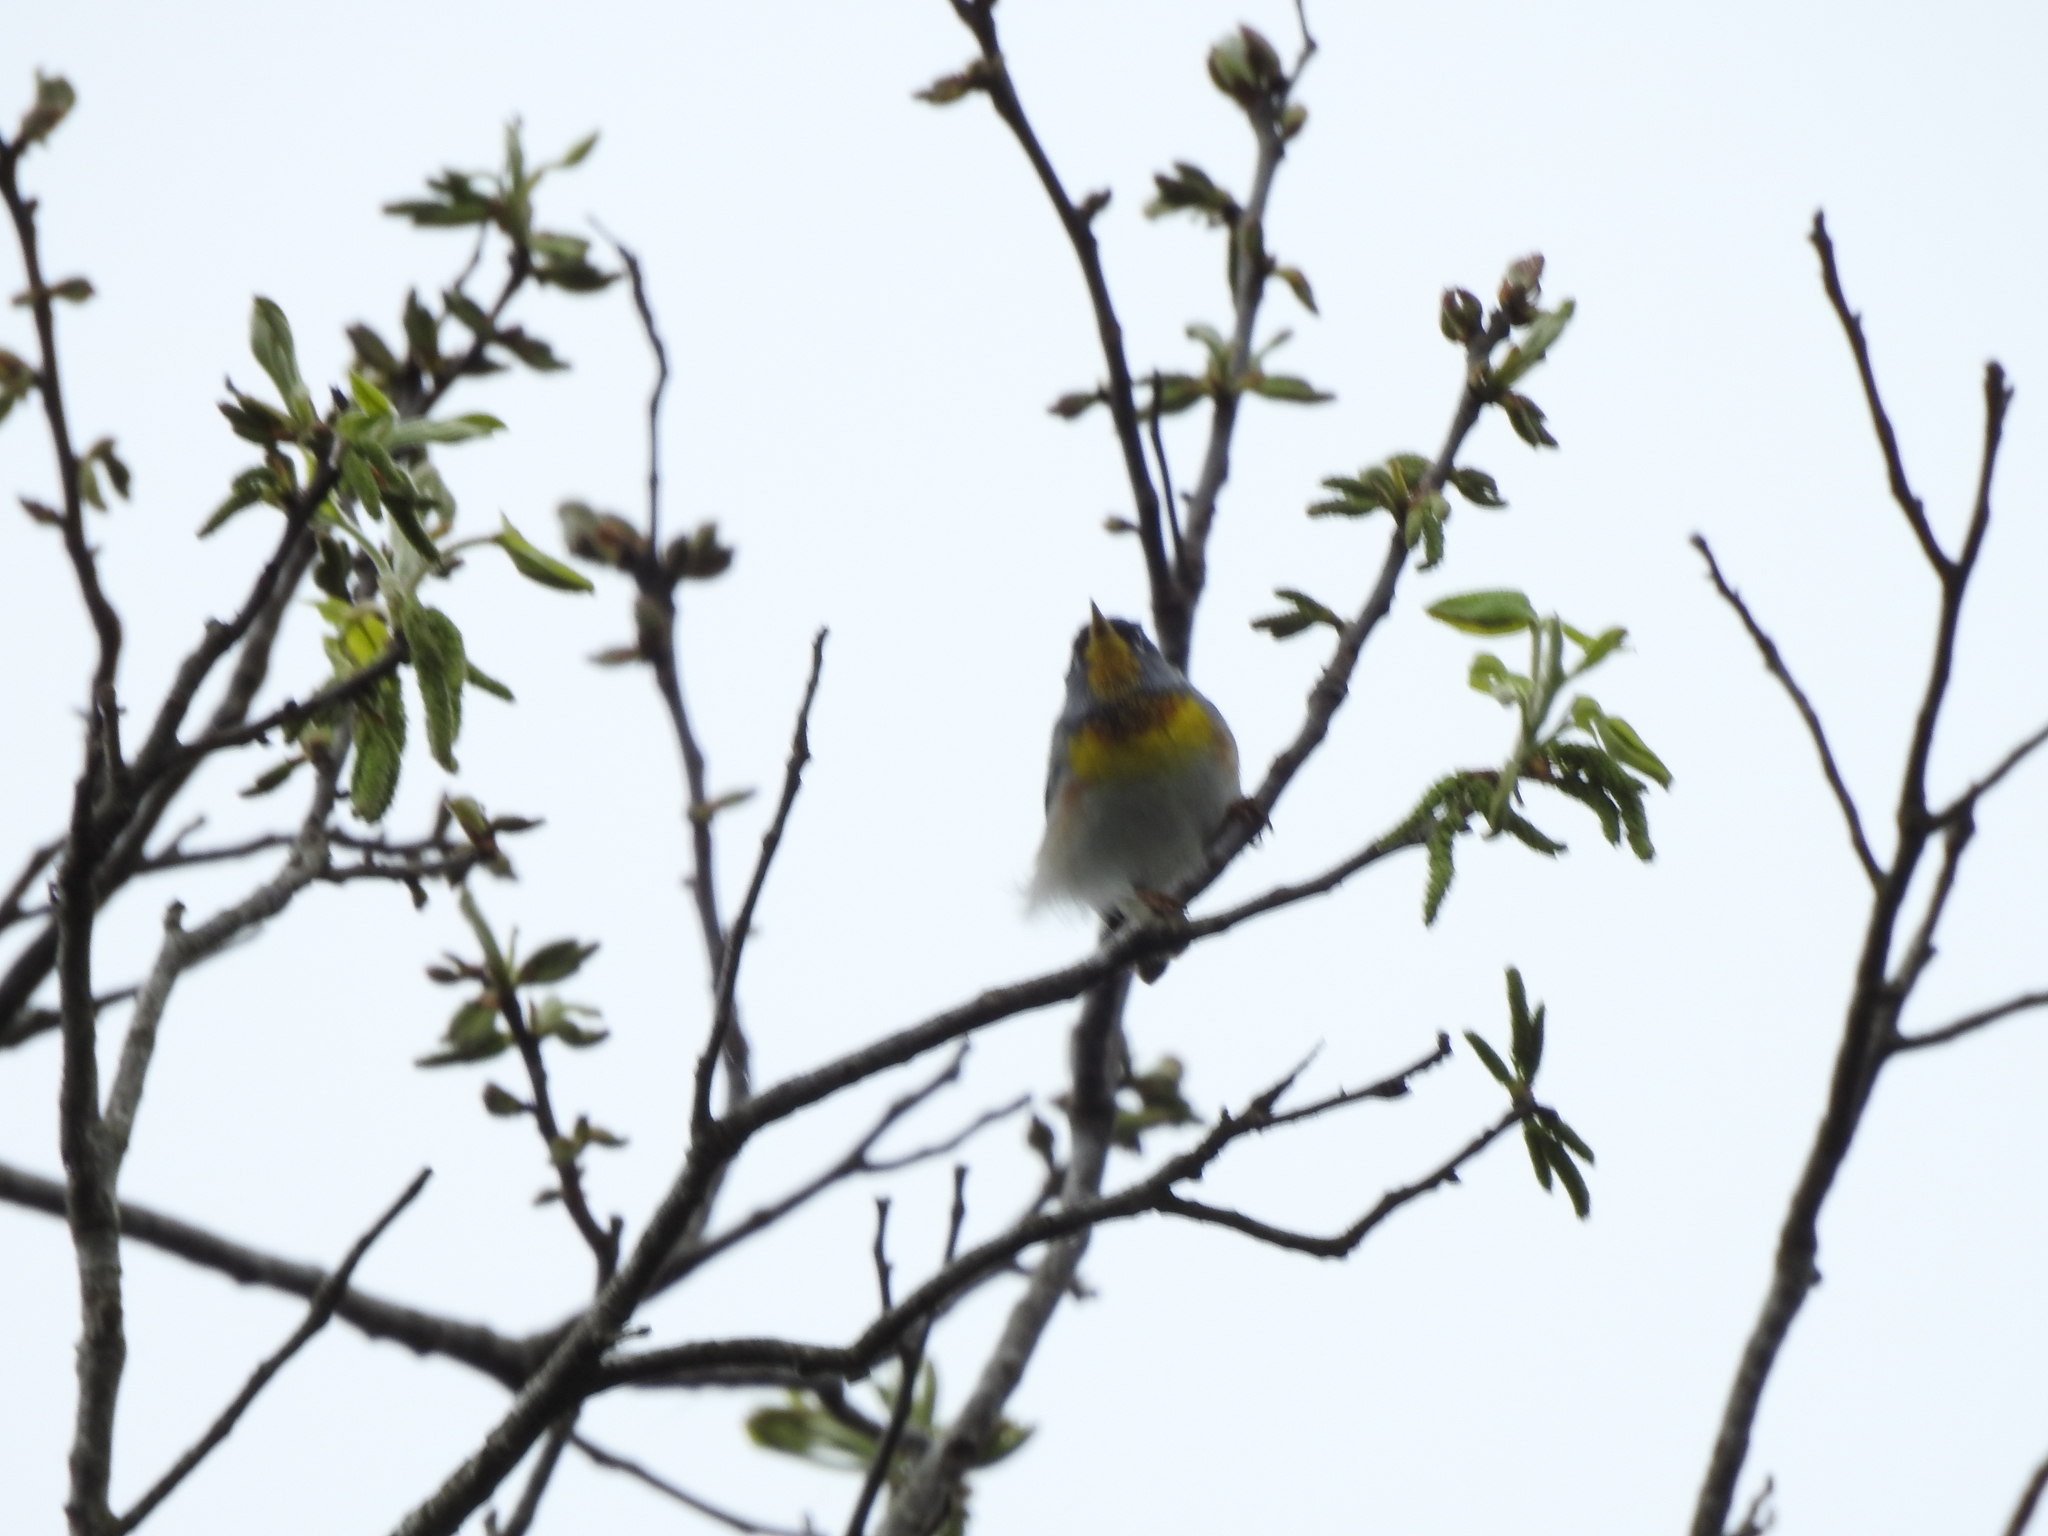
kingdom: Animalia
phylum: Chordata
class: Aves
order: Passeriformes
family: Parulidae
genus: Setophaga
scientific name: Setophaga americana
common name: Northern parula
